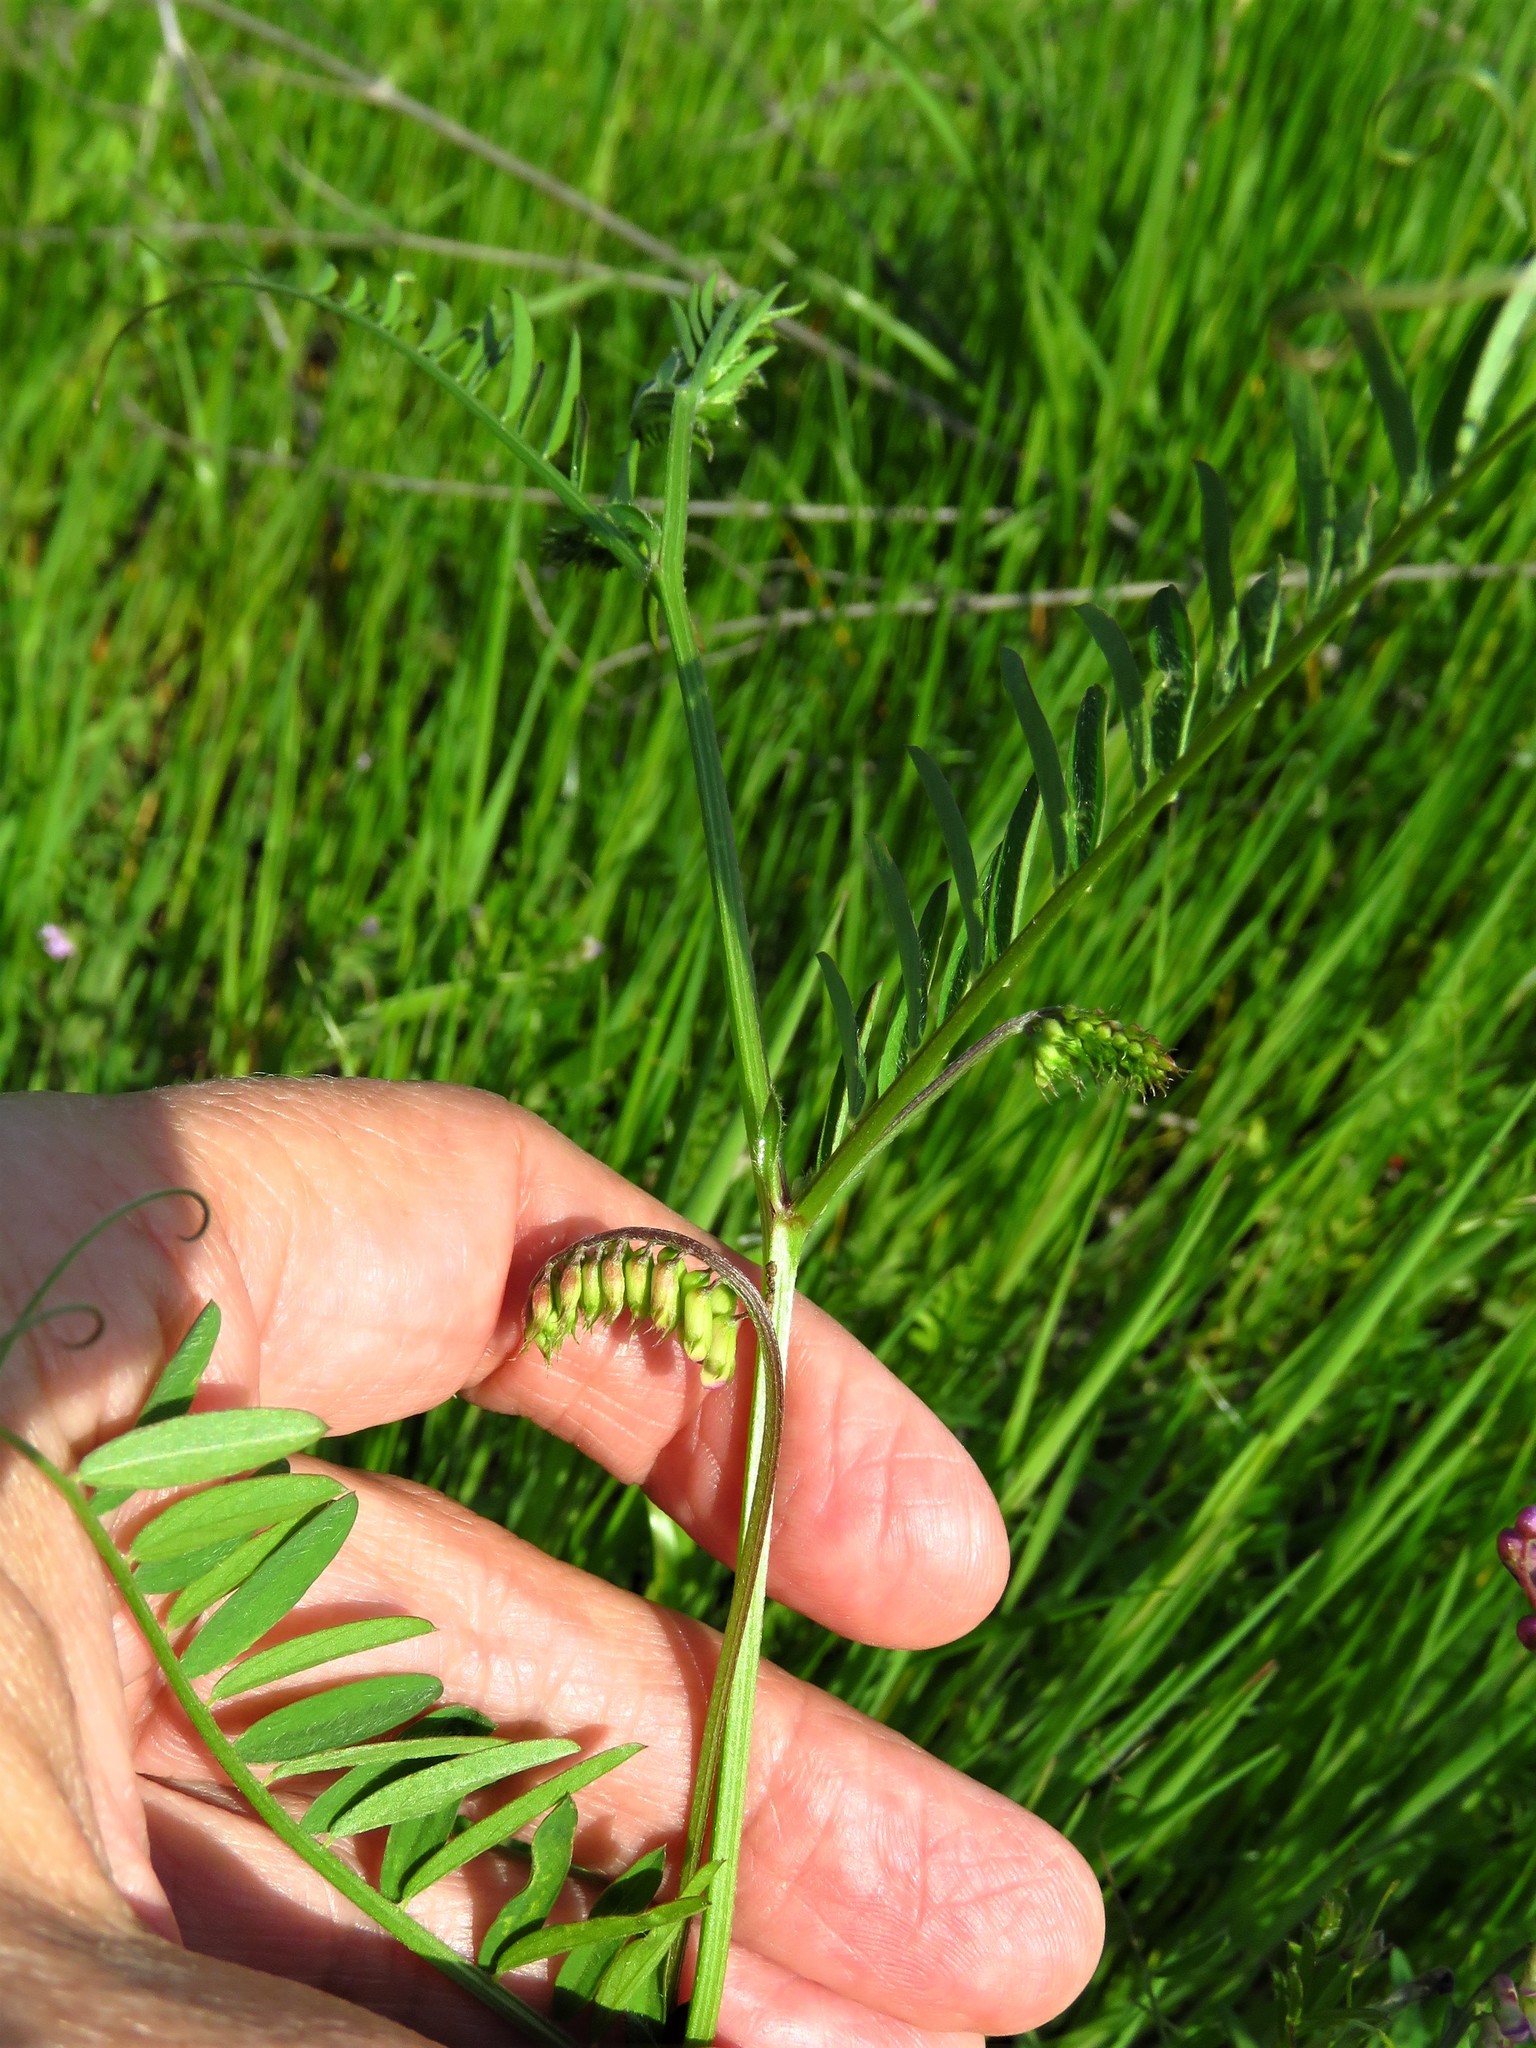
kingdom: Plantae
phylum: Tracheophyta
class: Magnoliopsida
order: Fabales
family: Fabaceae
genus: Vicia
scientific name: Vicia villosa
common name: Fodder vetch
